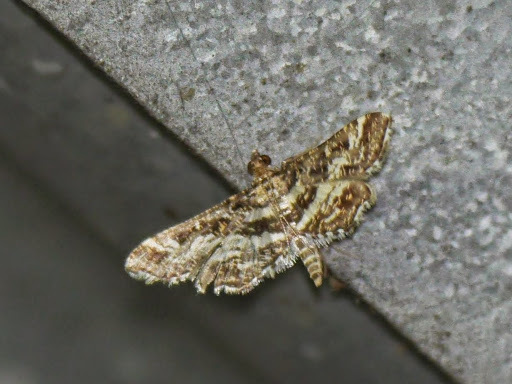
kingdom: Animalia
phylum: Arthropoda
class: Insecta
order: Lepidoptera
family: Crambidae
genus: Diasemiopsis
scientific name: Diasemiopsis ramburialis
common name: Vagrant china-mark
